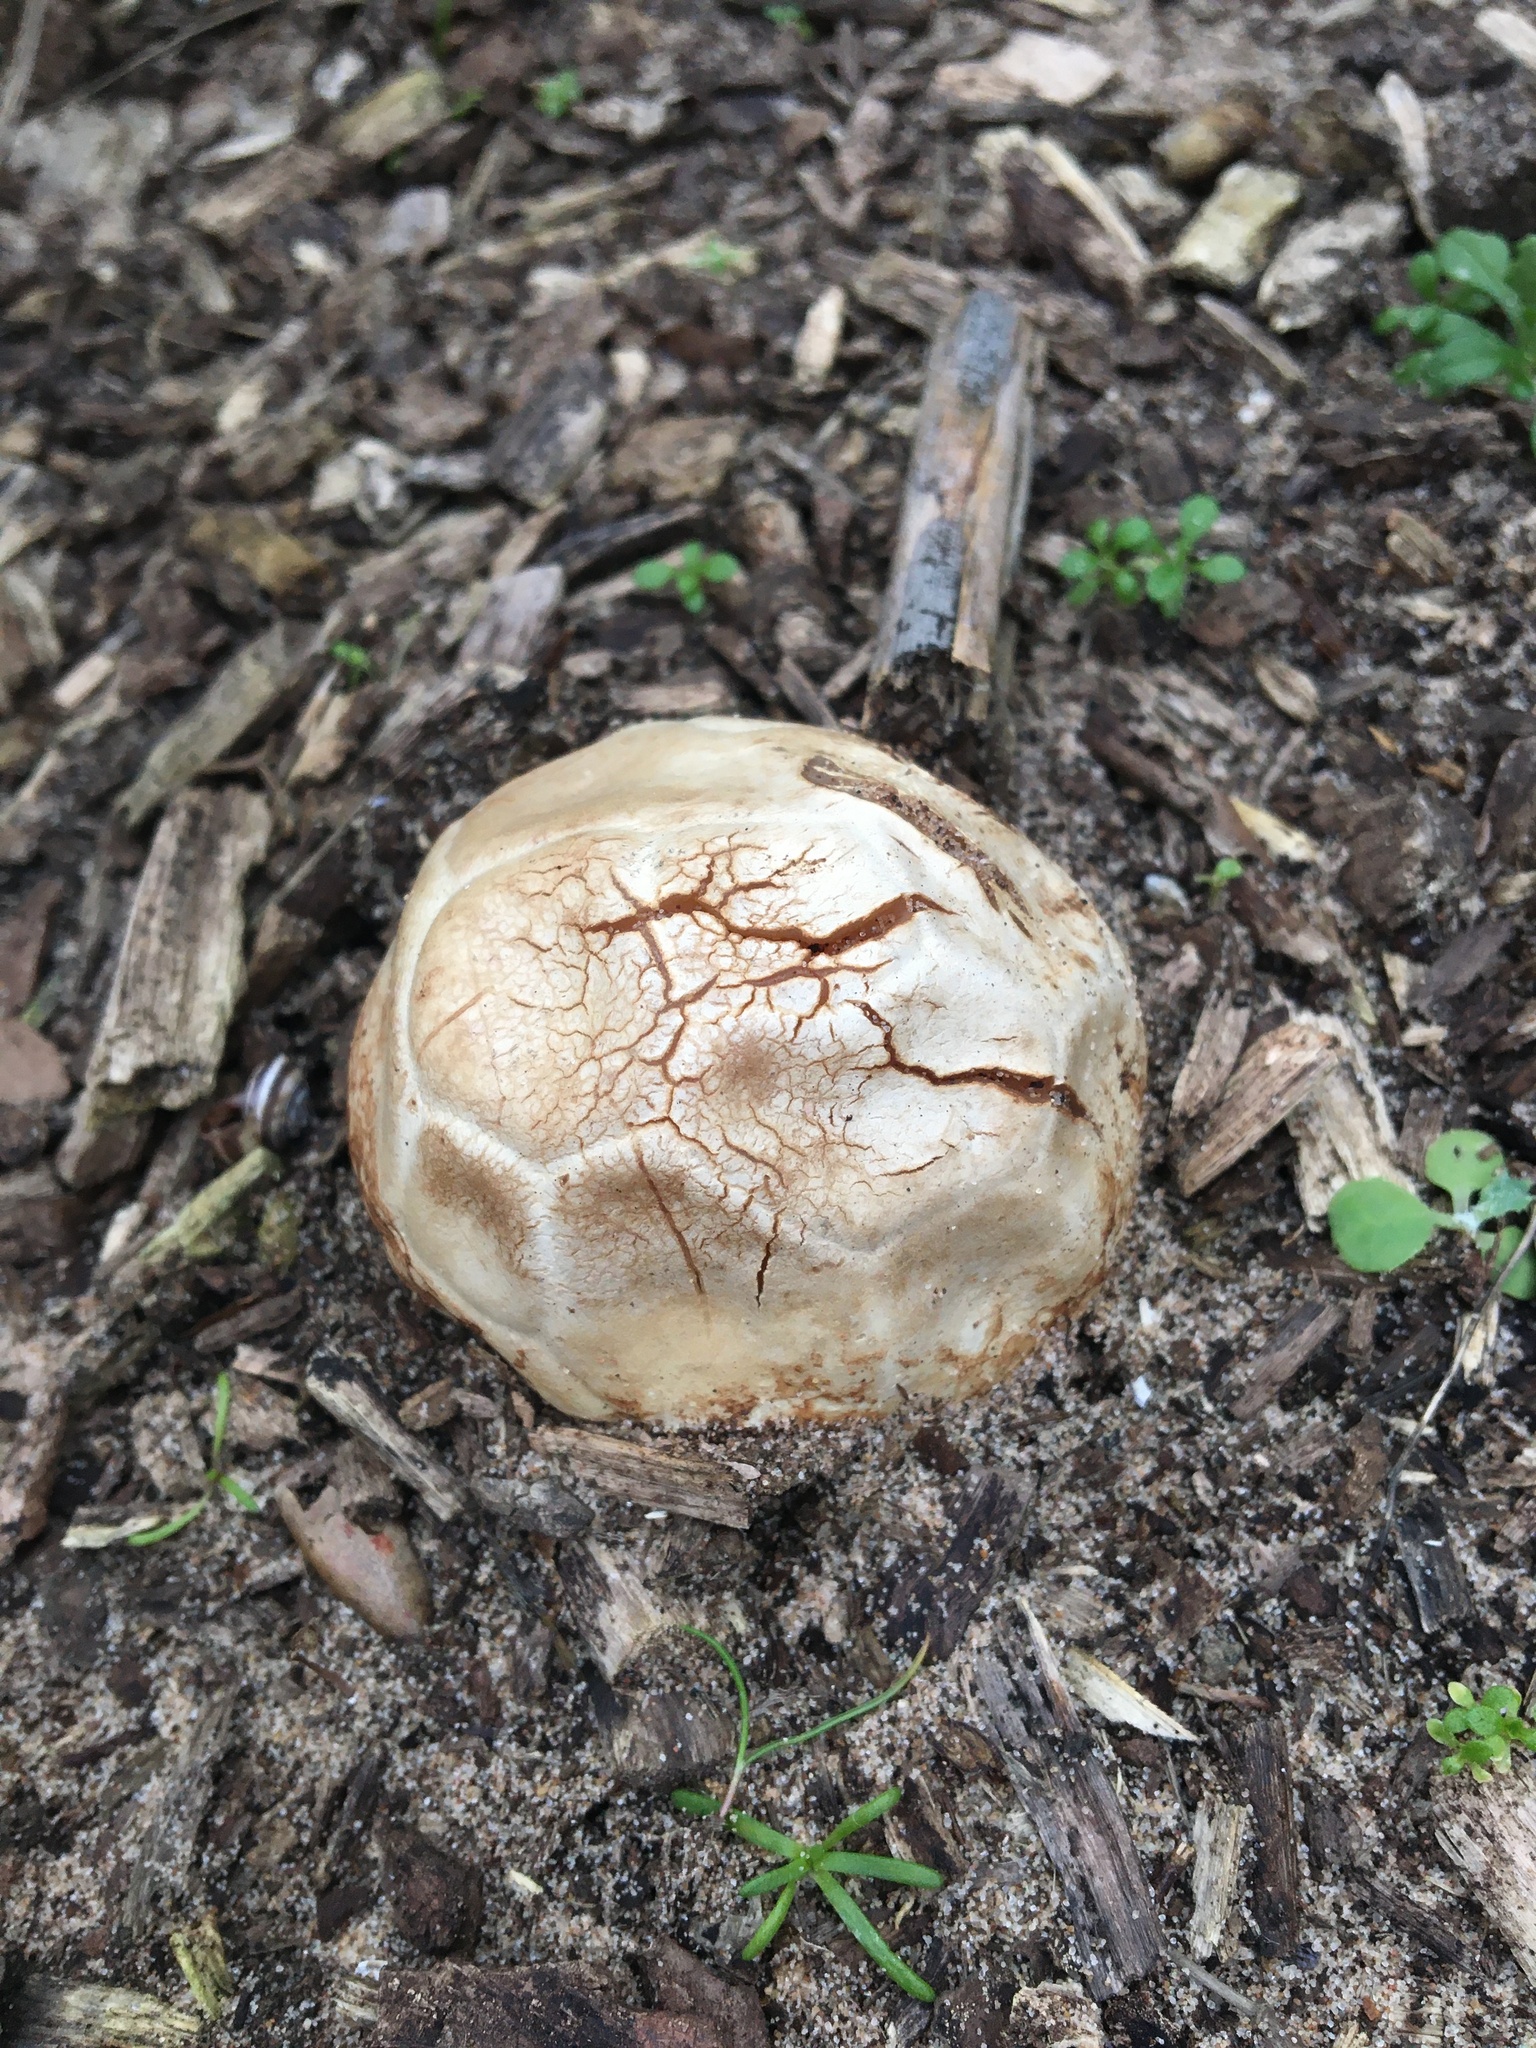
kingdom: Fungi
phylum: Basidiomycota
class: Agaricomycetes
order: Phallales
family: Phallaceae
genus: Clathrus
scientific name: Clathrus ruber
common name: Red cage
